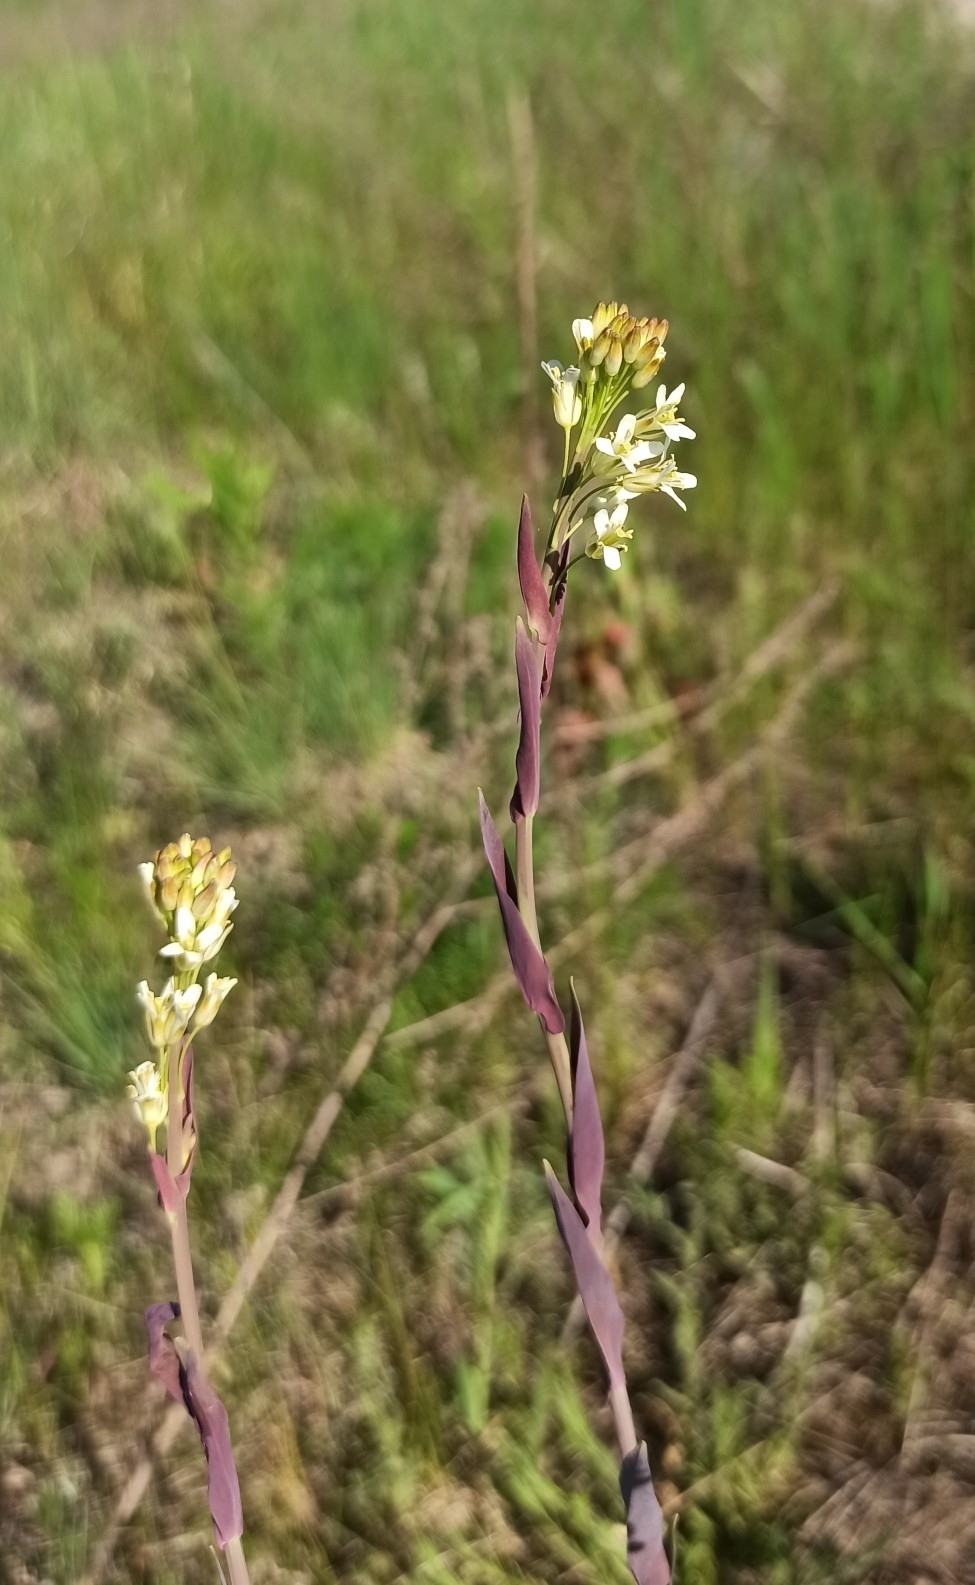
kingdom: Plantae
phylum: Tracheophyta
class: Magnoliopsida
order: Brassicales
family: Brassicaceae
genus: Turritis
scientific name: Turritis glabra
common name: Tower rockcress
